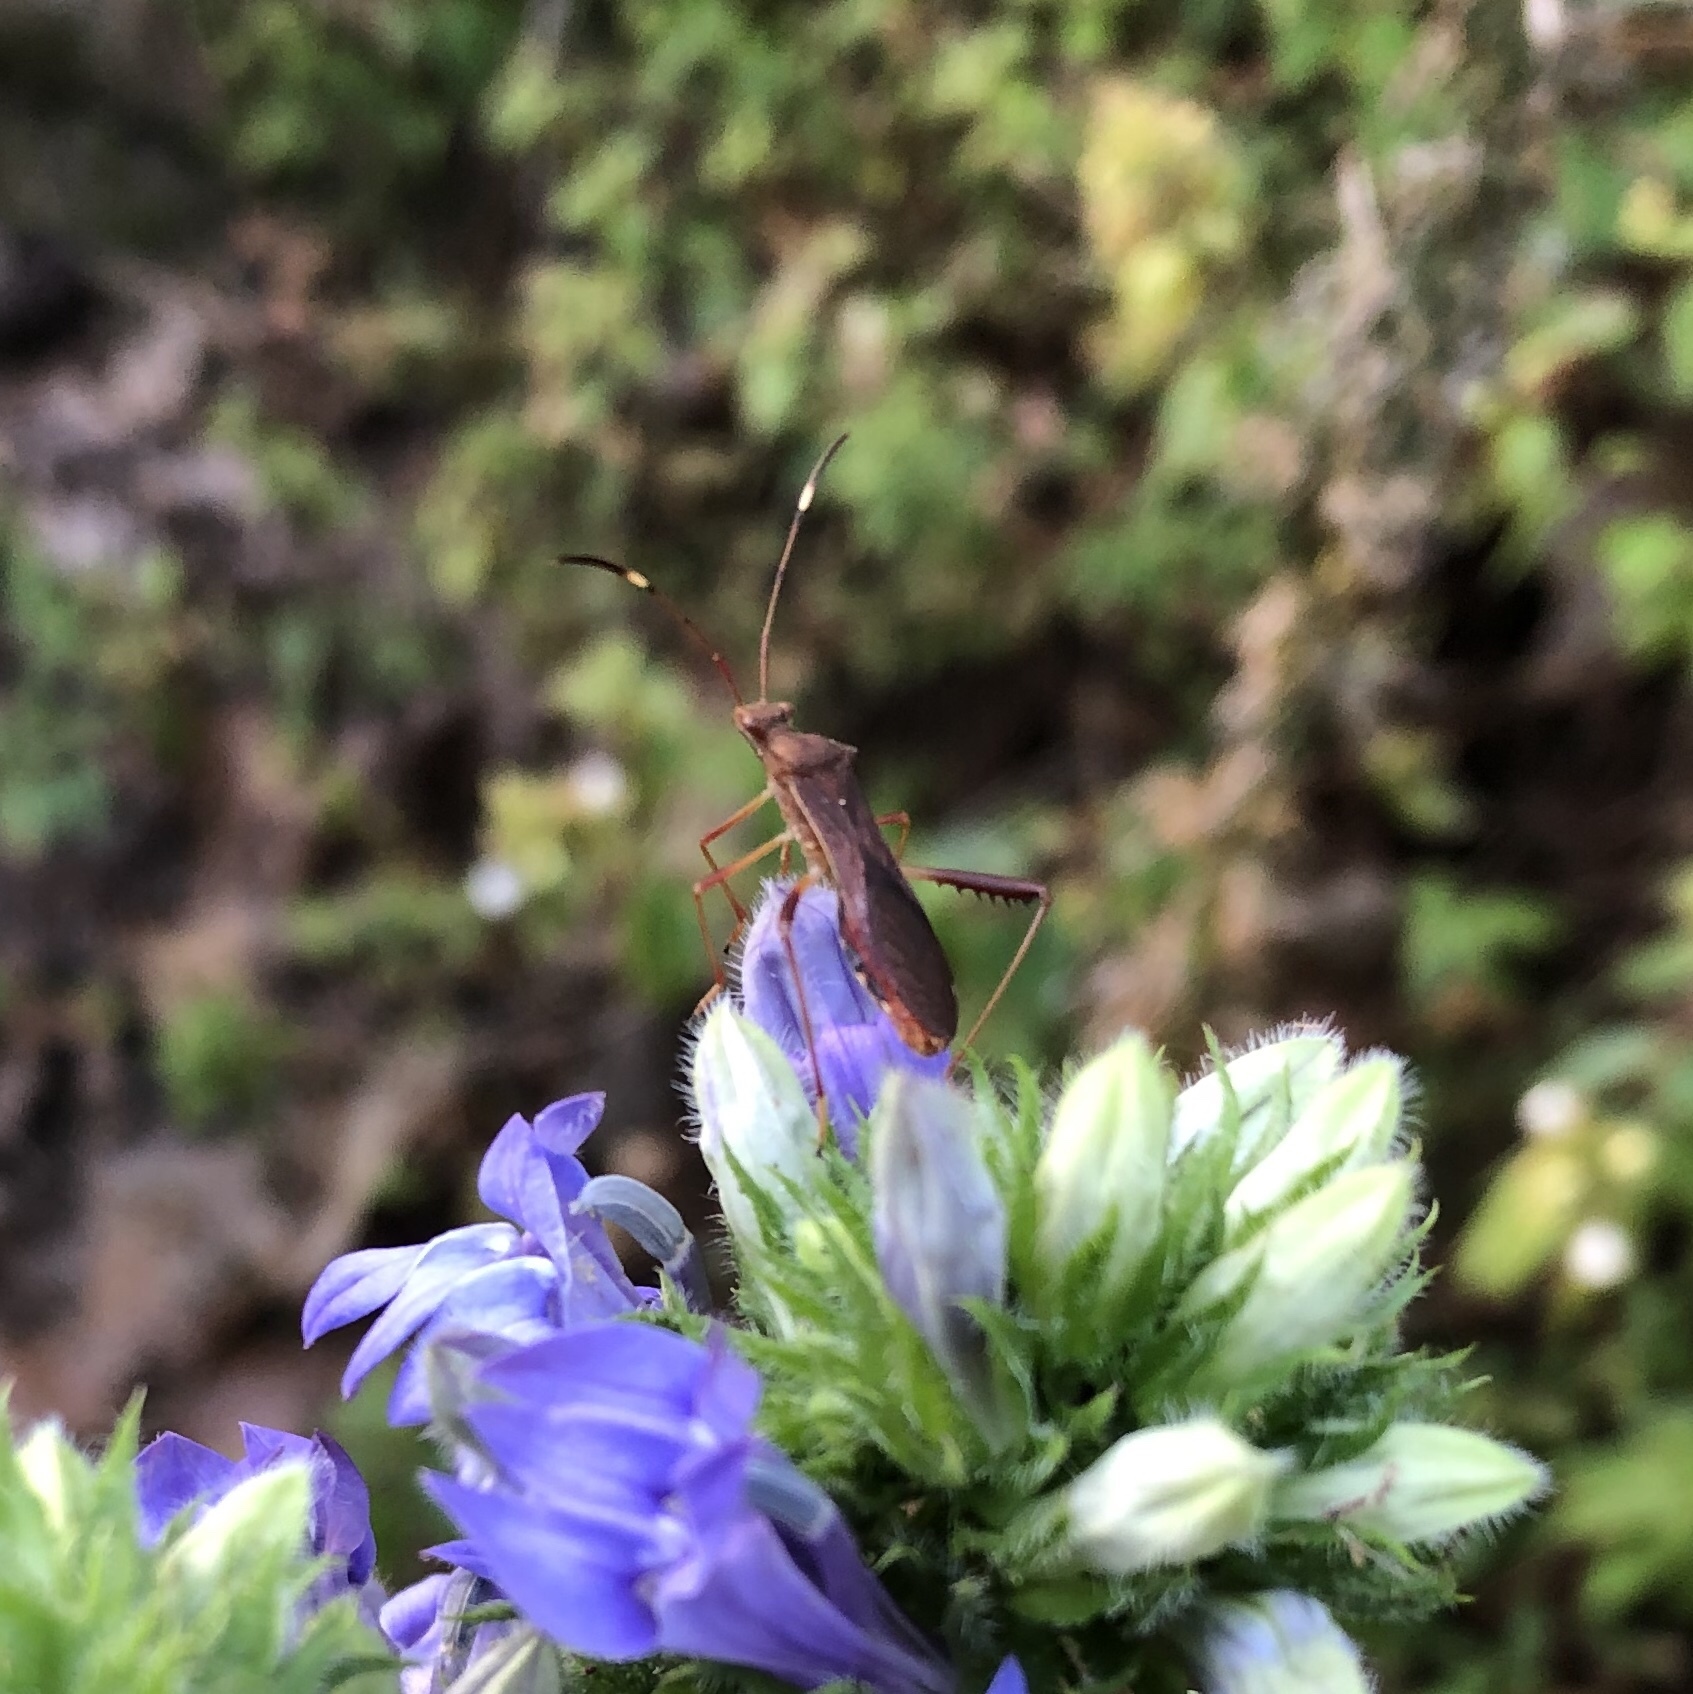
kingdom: Animalia
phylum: Arthropoda
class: Insecta
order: Hemiptera
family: Alydidae
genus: Megalotomus
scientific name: Megalotomus quinquespinosus
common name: Lupine bug
